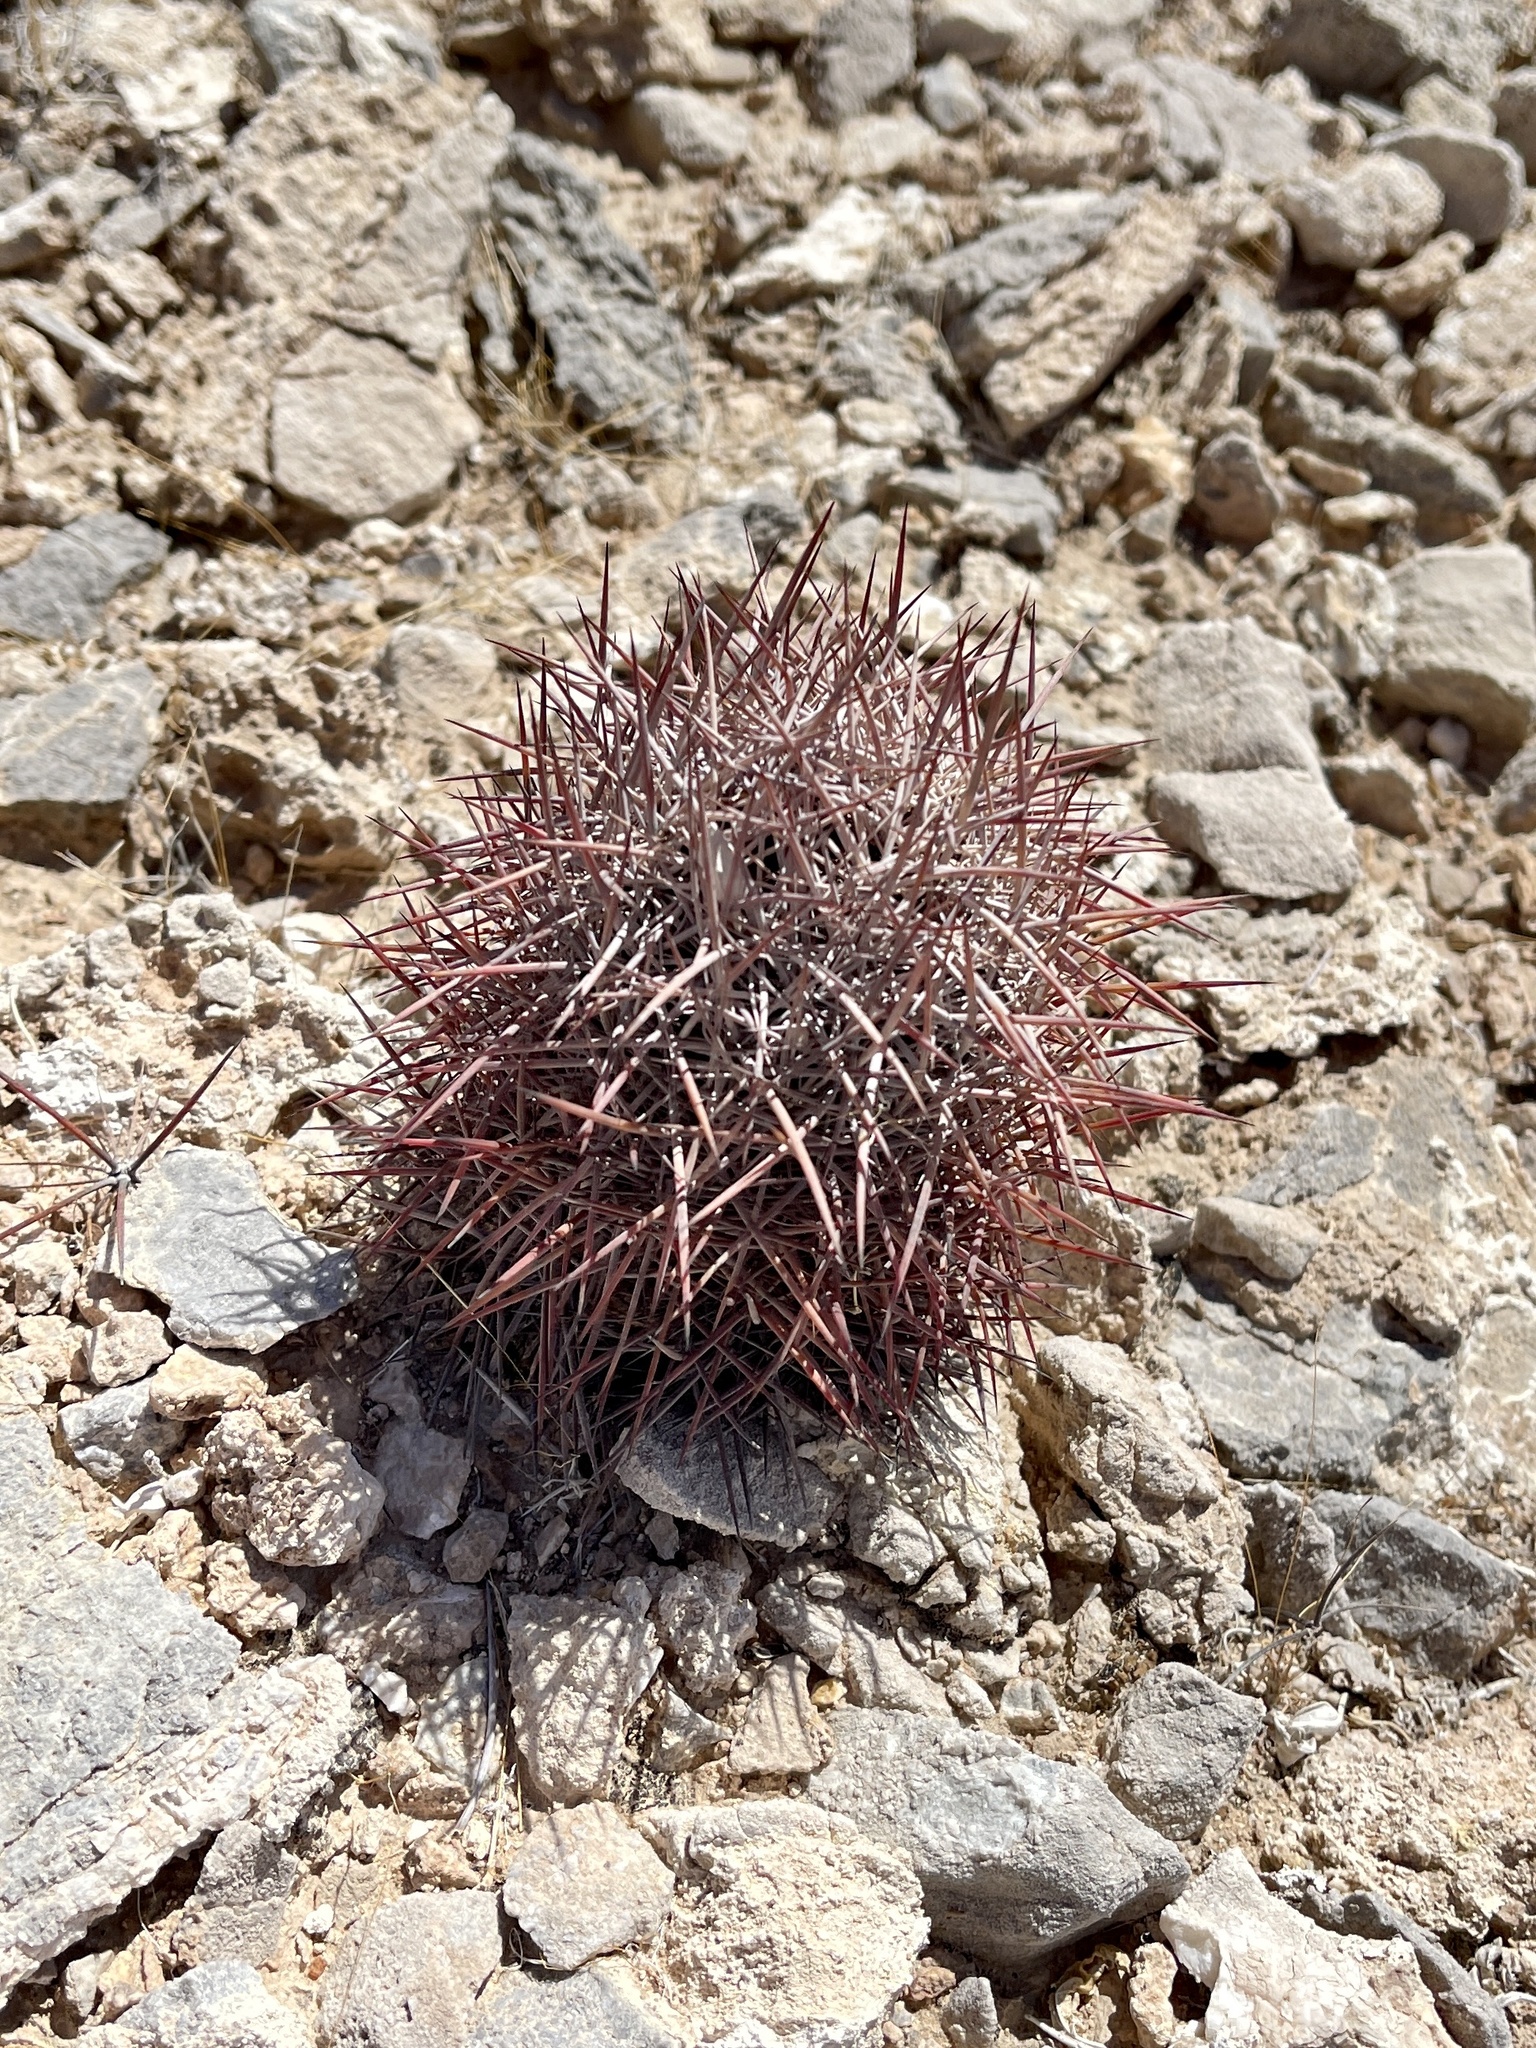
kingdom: Plantae
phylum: Tracheophyta
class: Magnoliopsida
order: Caryophyllales
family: Cactaceae
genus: Sclerocactus
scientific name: Sclerocactus johnsonii
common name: Eight-spine fishhook cactus
